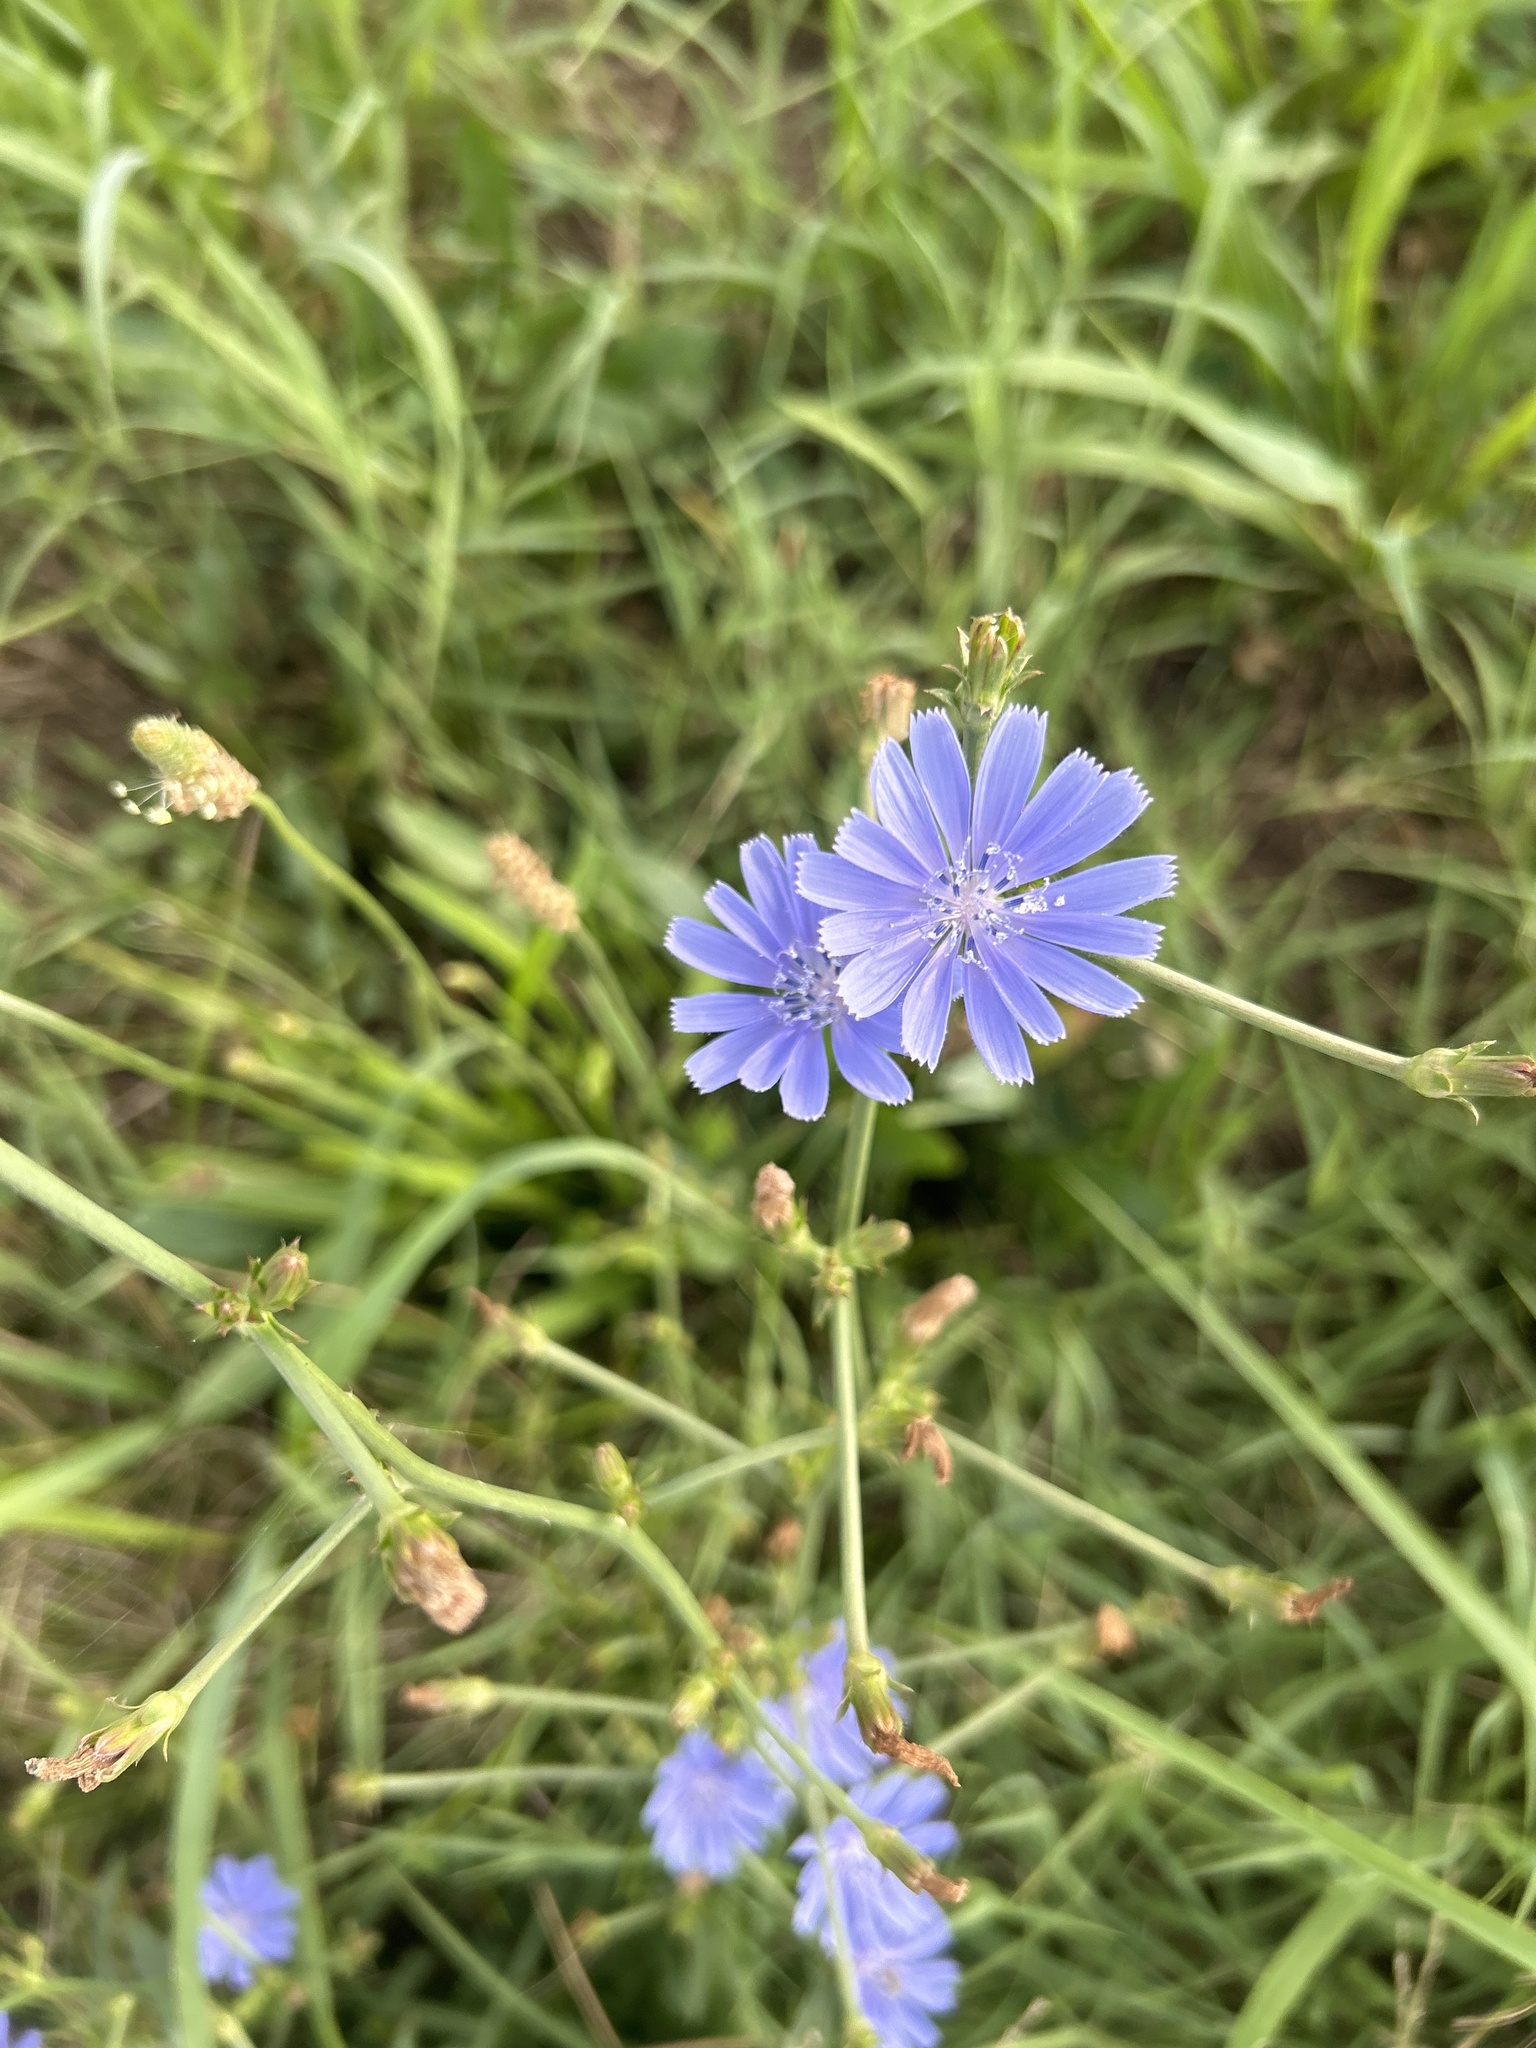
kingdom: Plantae
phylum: Tracheophyta
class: Magnoliopsida
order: Asterales
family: Asteraceae
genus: Cichorium
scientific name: Cichorium intybus
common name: Chicory
